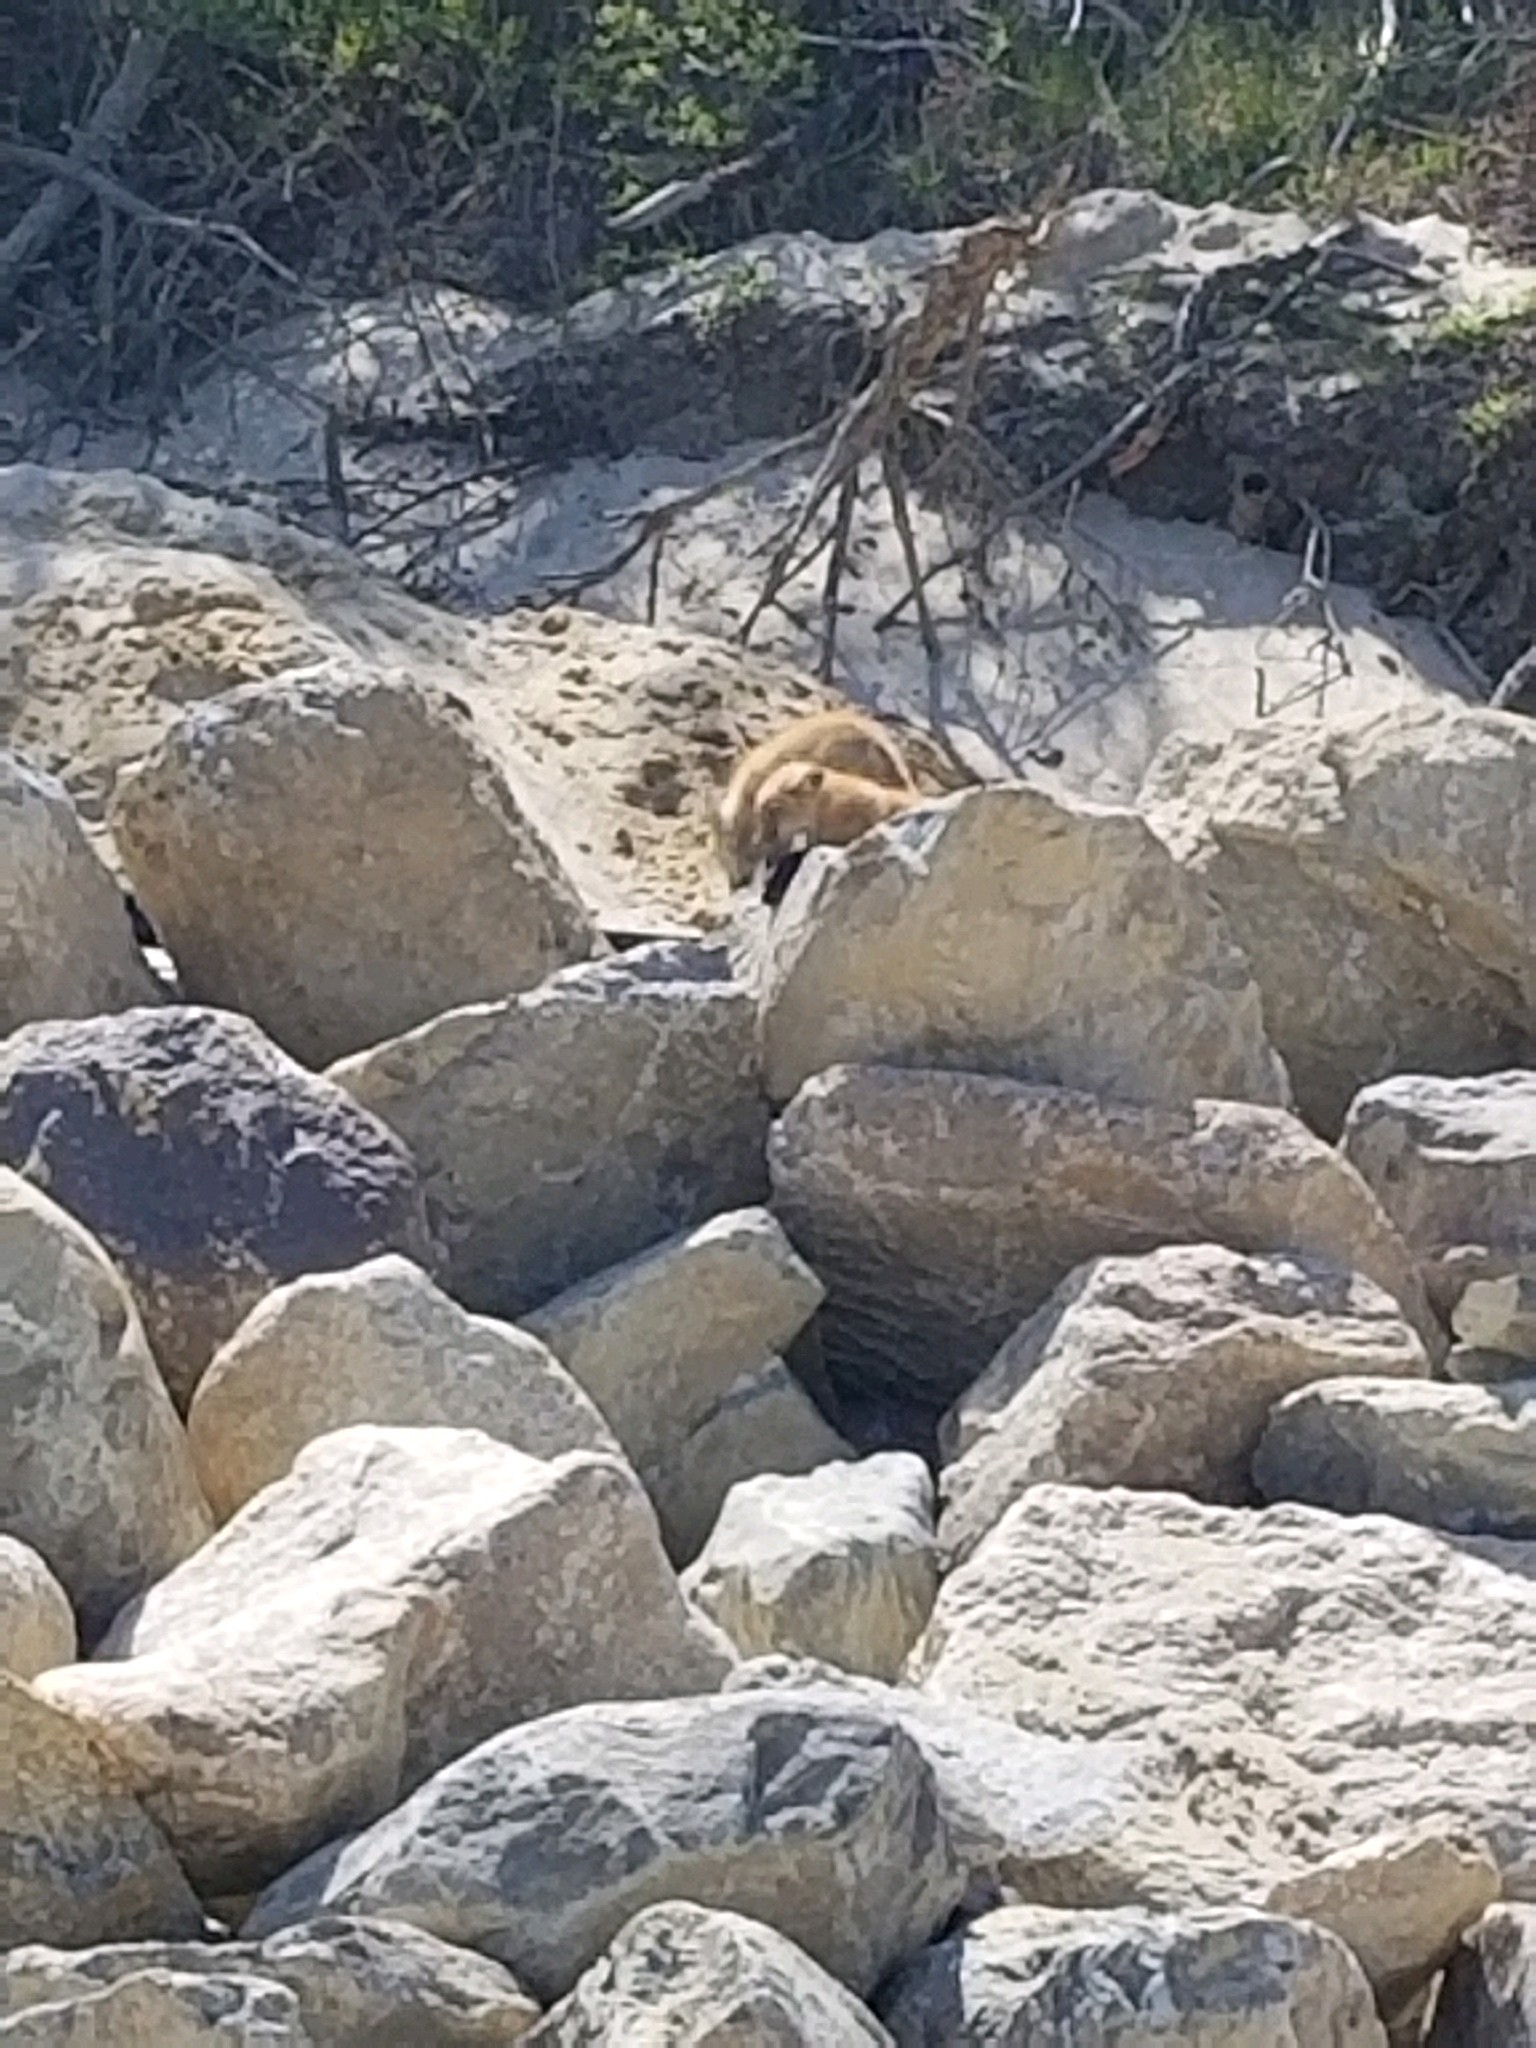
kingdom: Animalia
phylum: Chordata
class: Mammalia
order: Carnivora
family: Canidae
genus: Vulpes
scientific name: Vulpes vulpes
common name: Red fox
